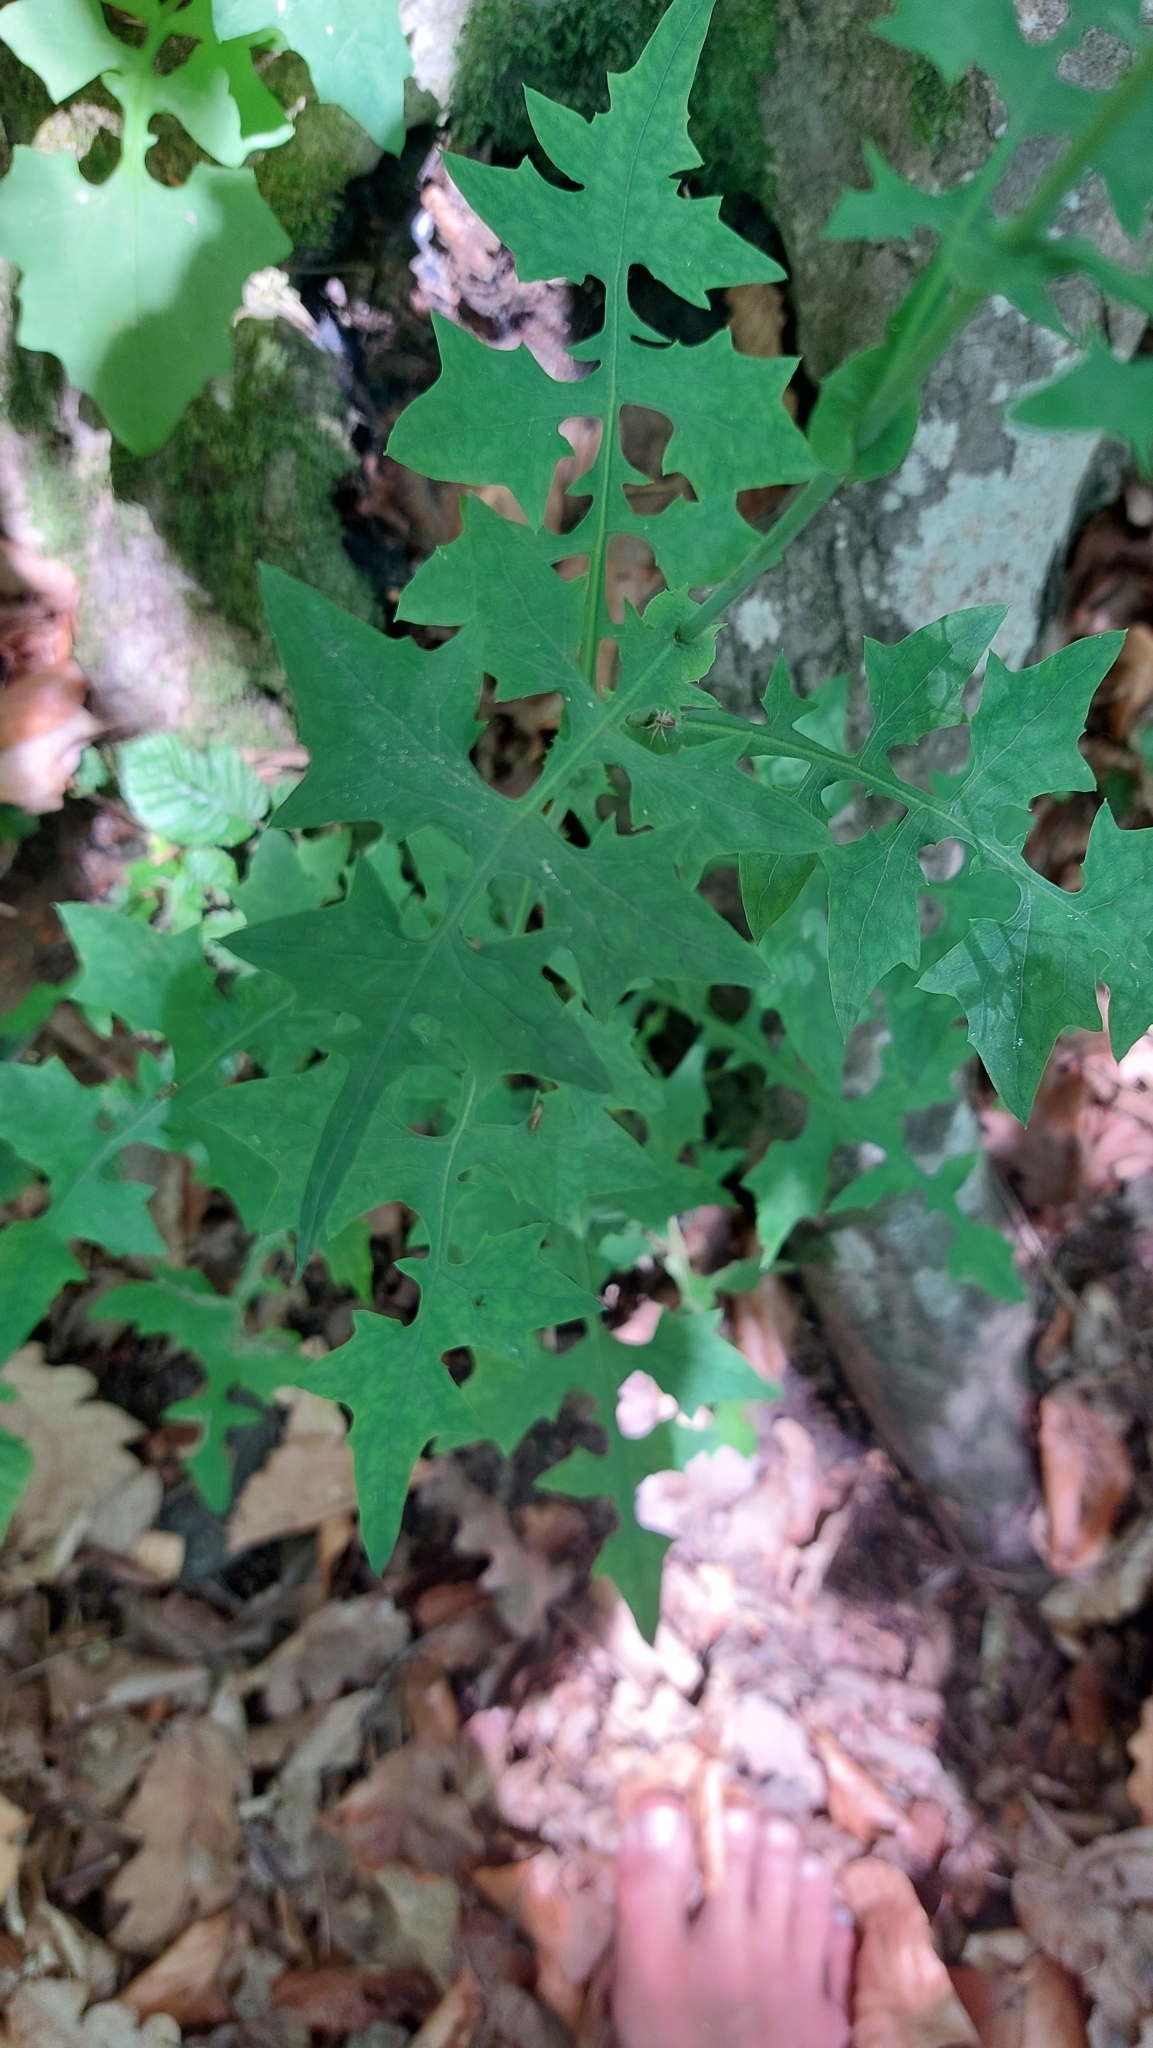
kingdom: Plantae
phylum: Tracheophyta
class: Magnoliopsida
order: Asterales
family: Asteraceae
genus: Mycelis
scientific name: Mycelis muralis
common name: Wall lettuce
